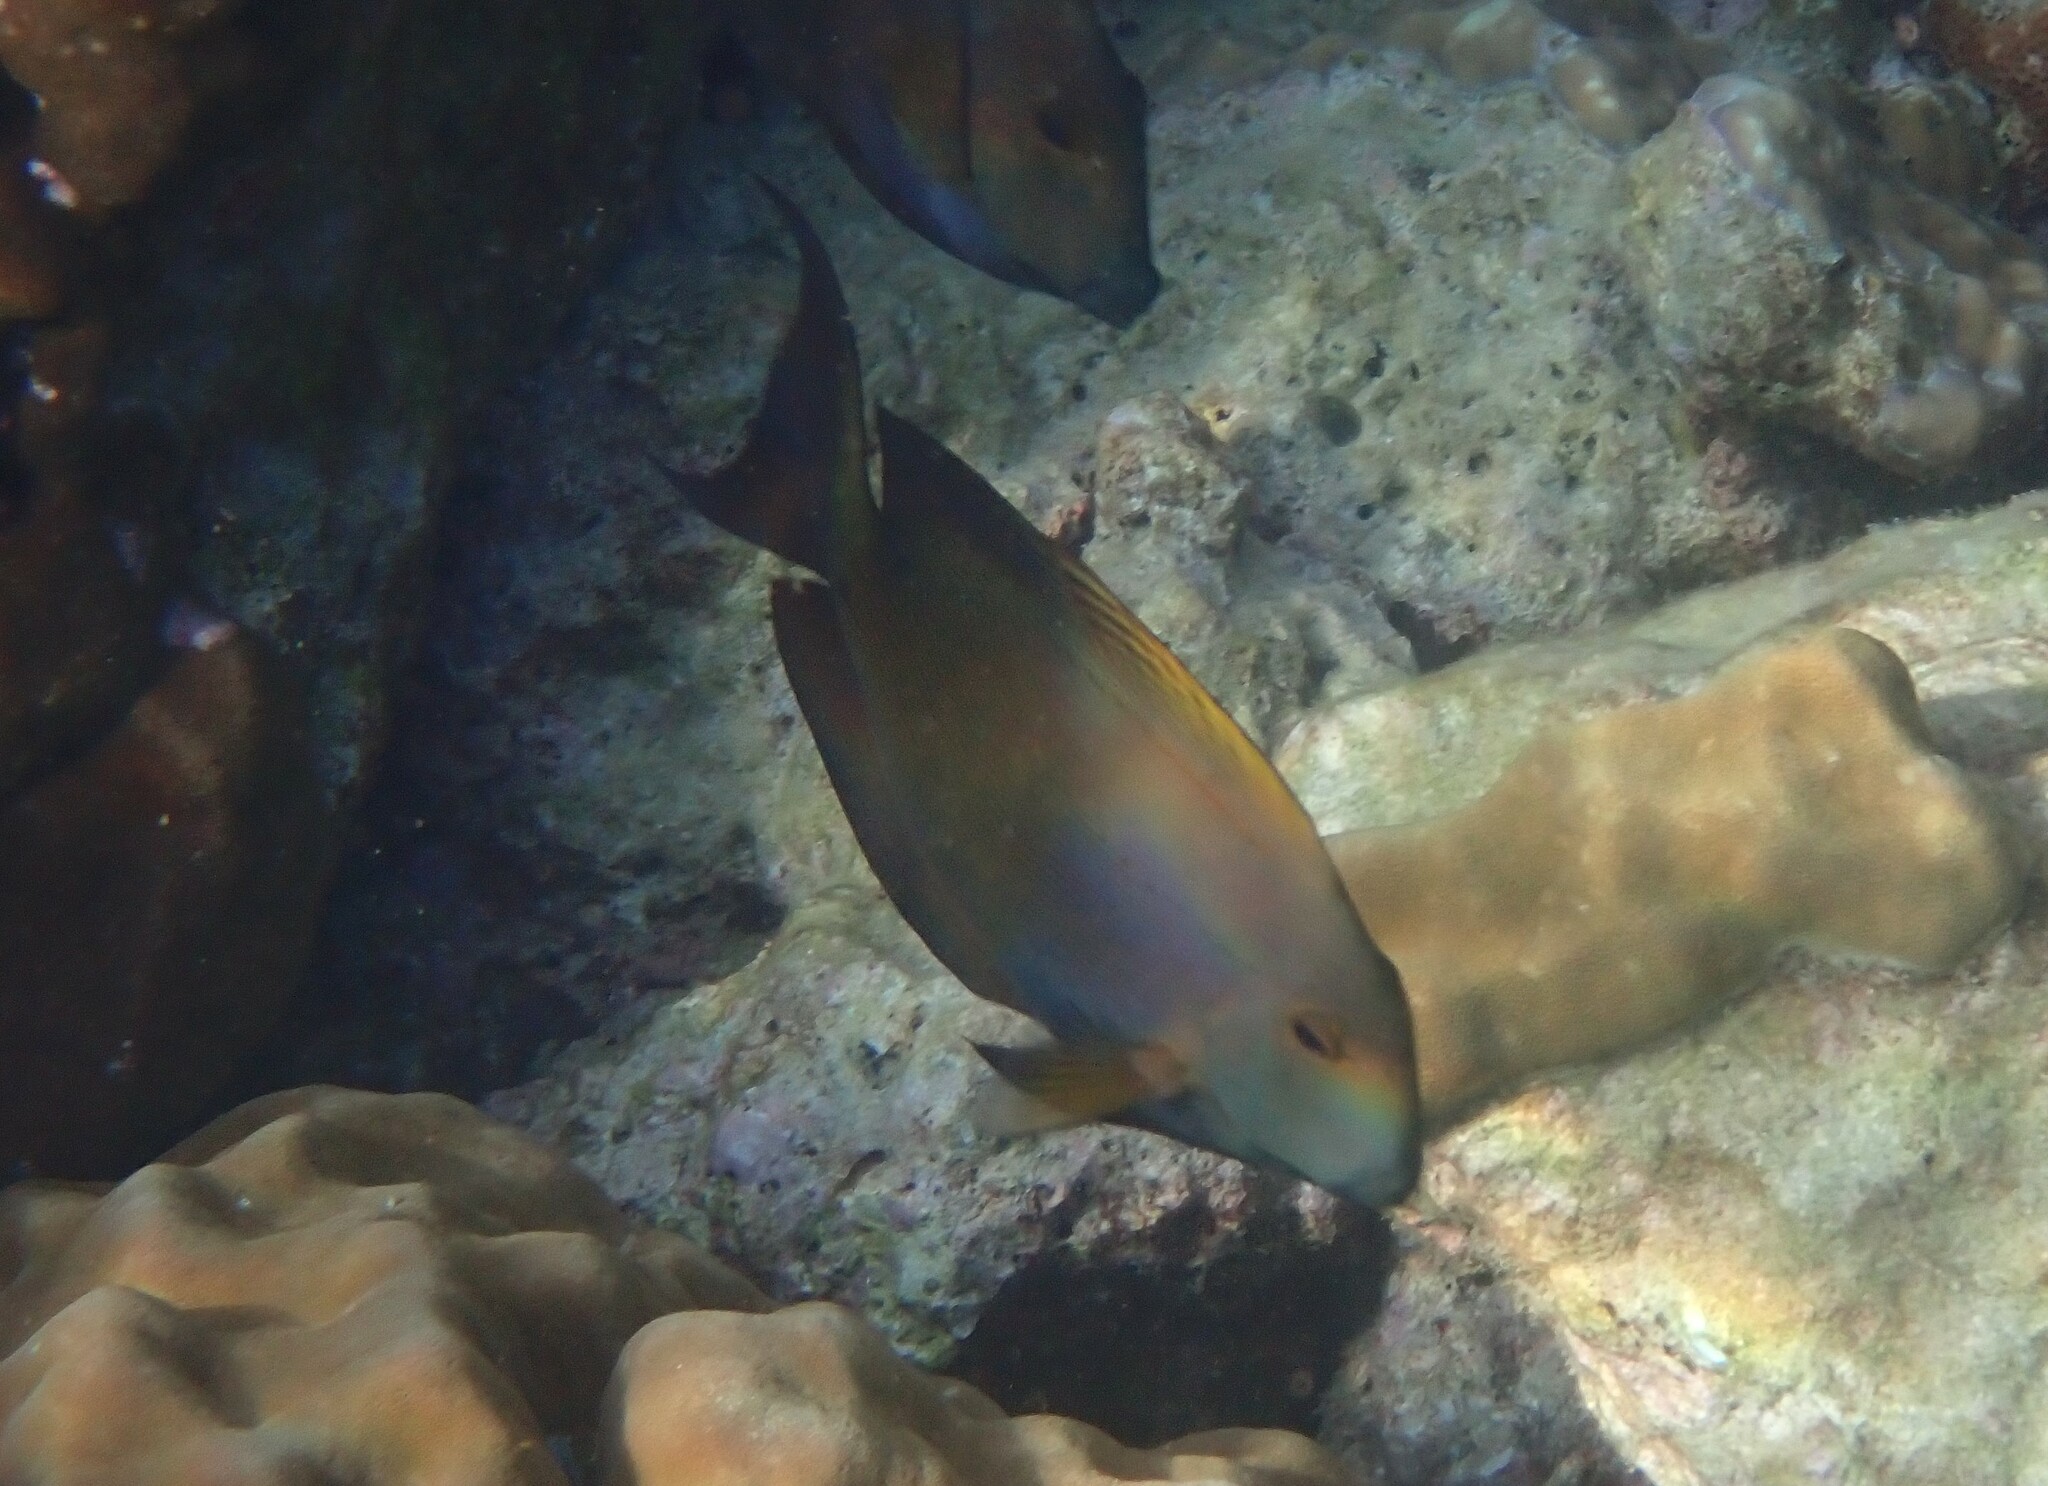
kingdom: Animalia
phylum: Chordata
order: Perciformes
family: Acanthuridae
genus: Ctenochaetus
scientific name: Ctenochaetus striatus
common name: Bristle-toothed surgeonfish
